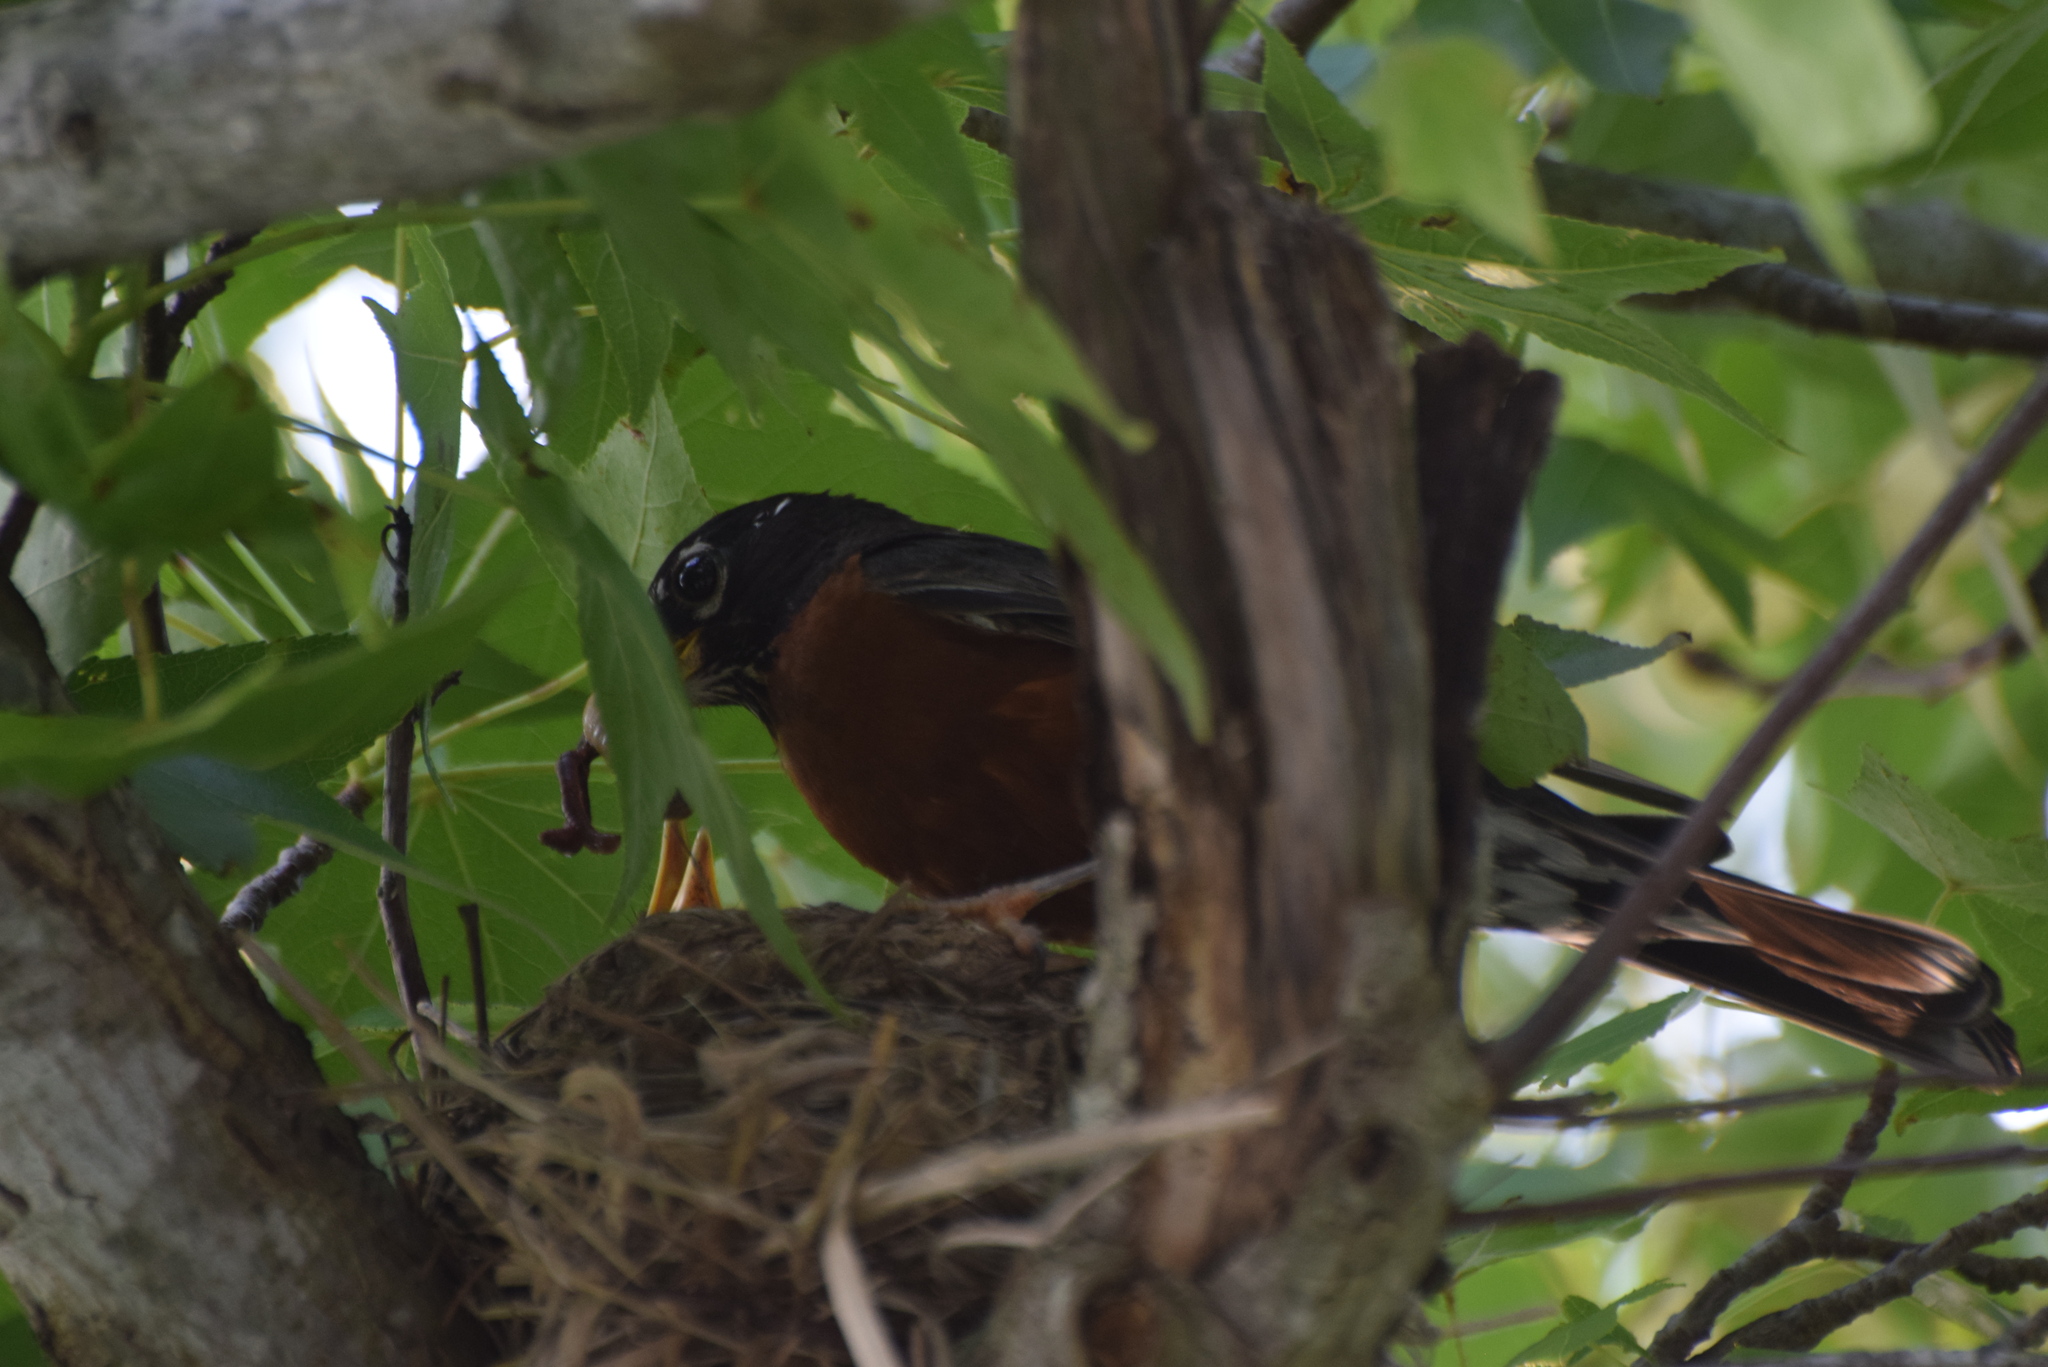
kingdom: Animalia
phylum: Chordata
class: Aves
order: Passeriformes
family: Turdidae
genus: Turdus
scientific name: Turdus migratorius
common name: American robin
